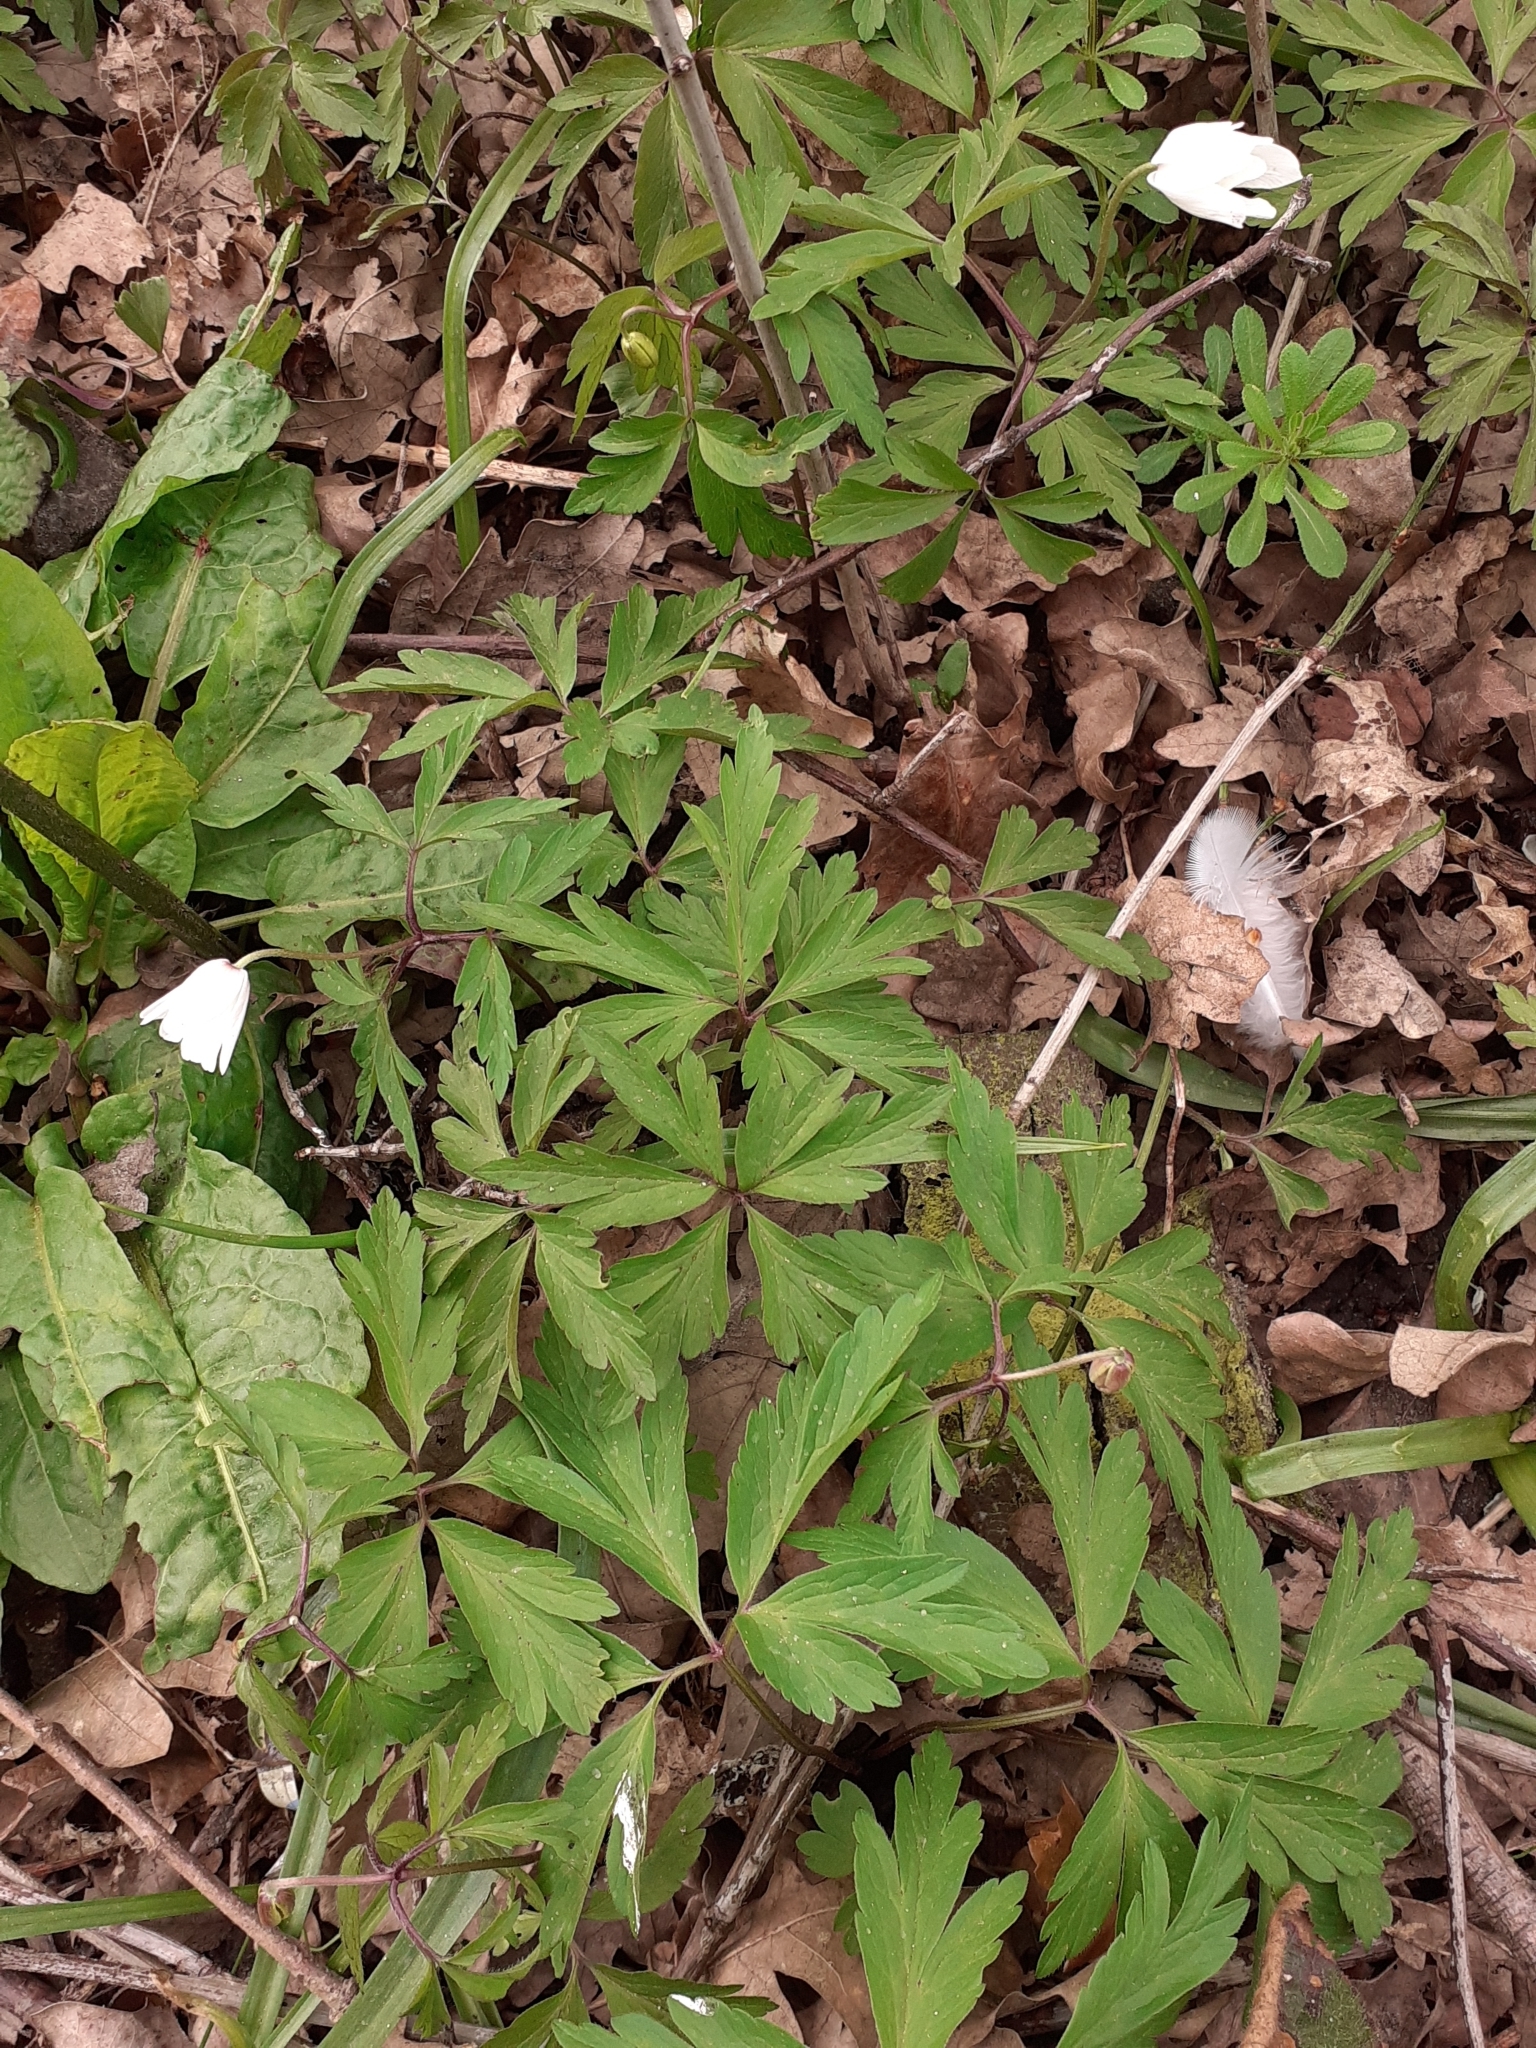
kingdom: Plantae
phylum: Tracheophyta
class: Magnoliopsida
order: Ranunculales
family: Ranunculaceae
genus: Anemone
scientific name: Anemone nemorosa
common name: Wood anemone
